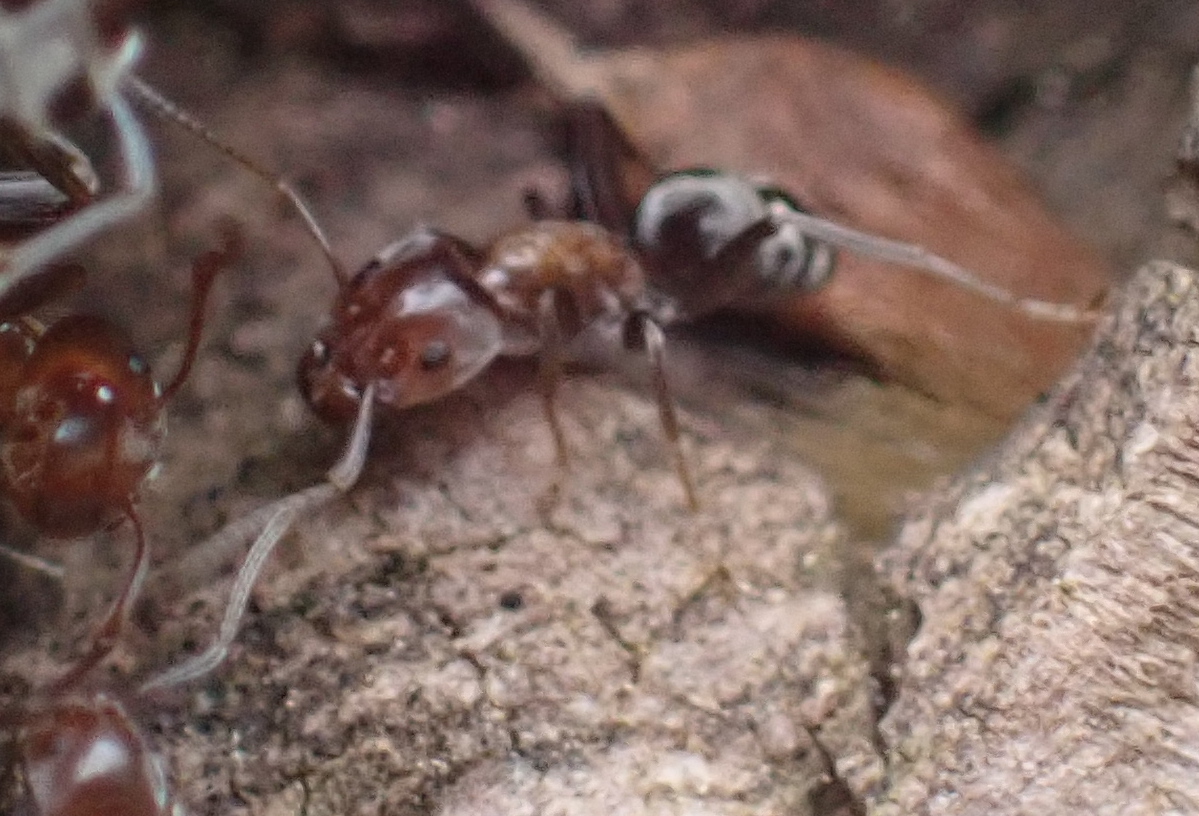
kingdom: Animalia
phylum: Arthropoda
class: Insecta
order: Hymenoptera
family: Formicidae
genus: Liometopum
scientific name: Liometopum microcephalum
